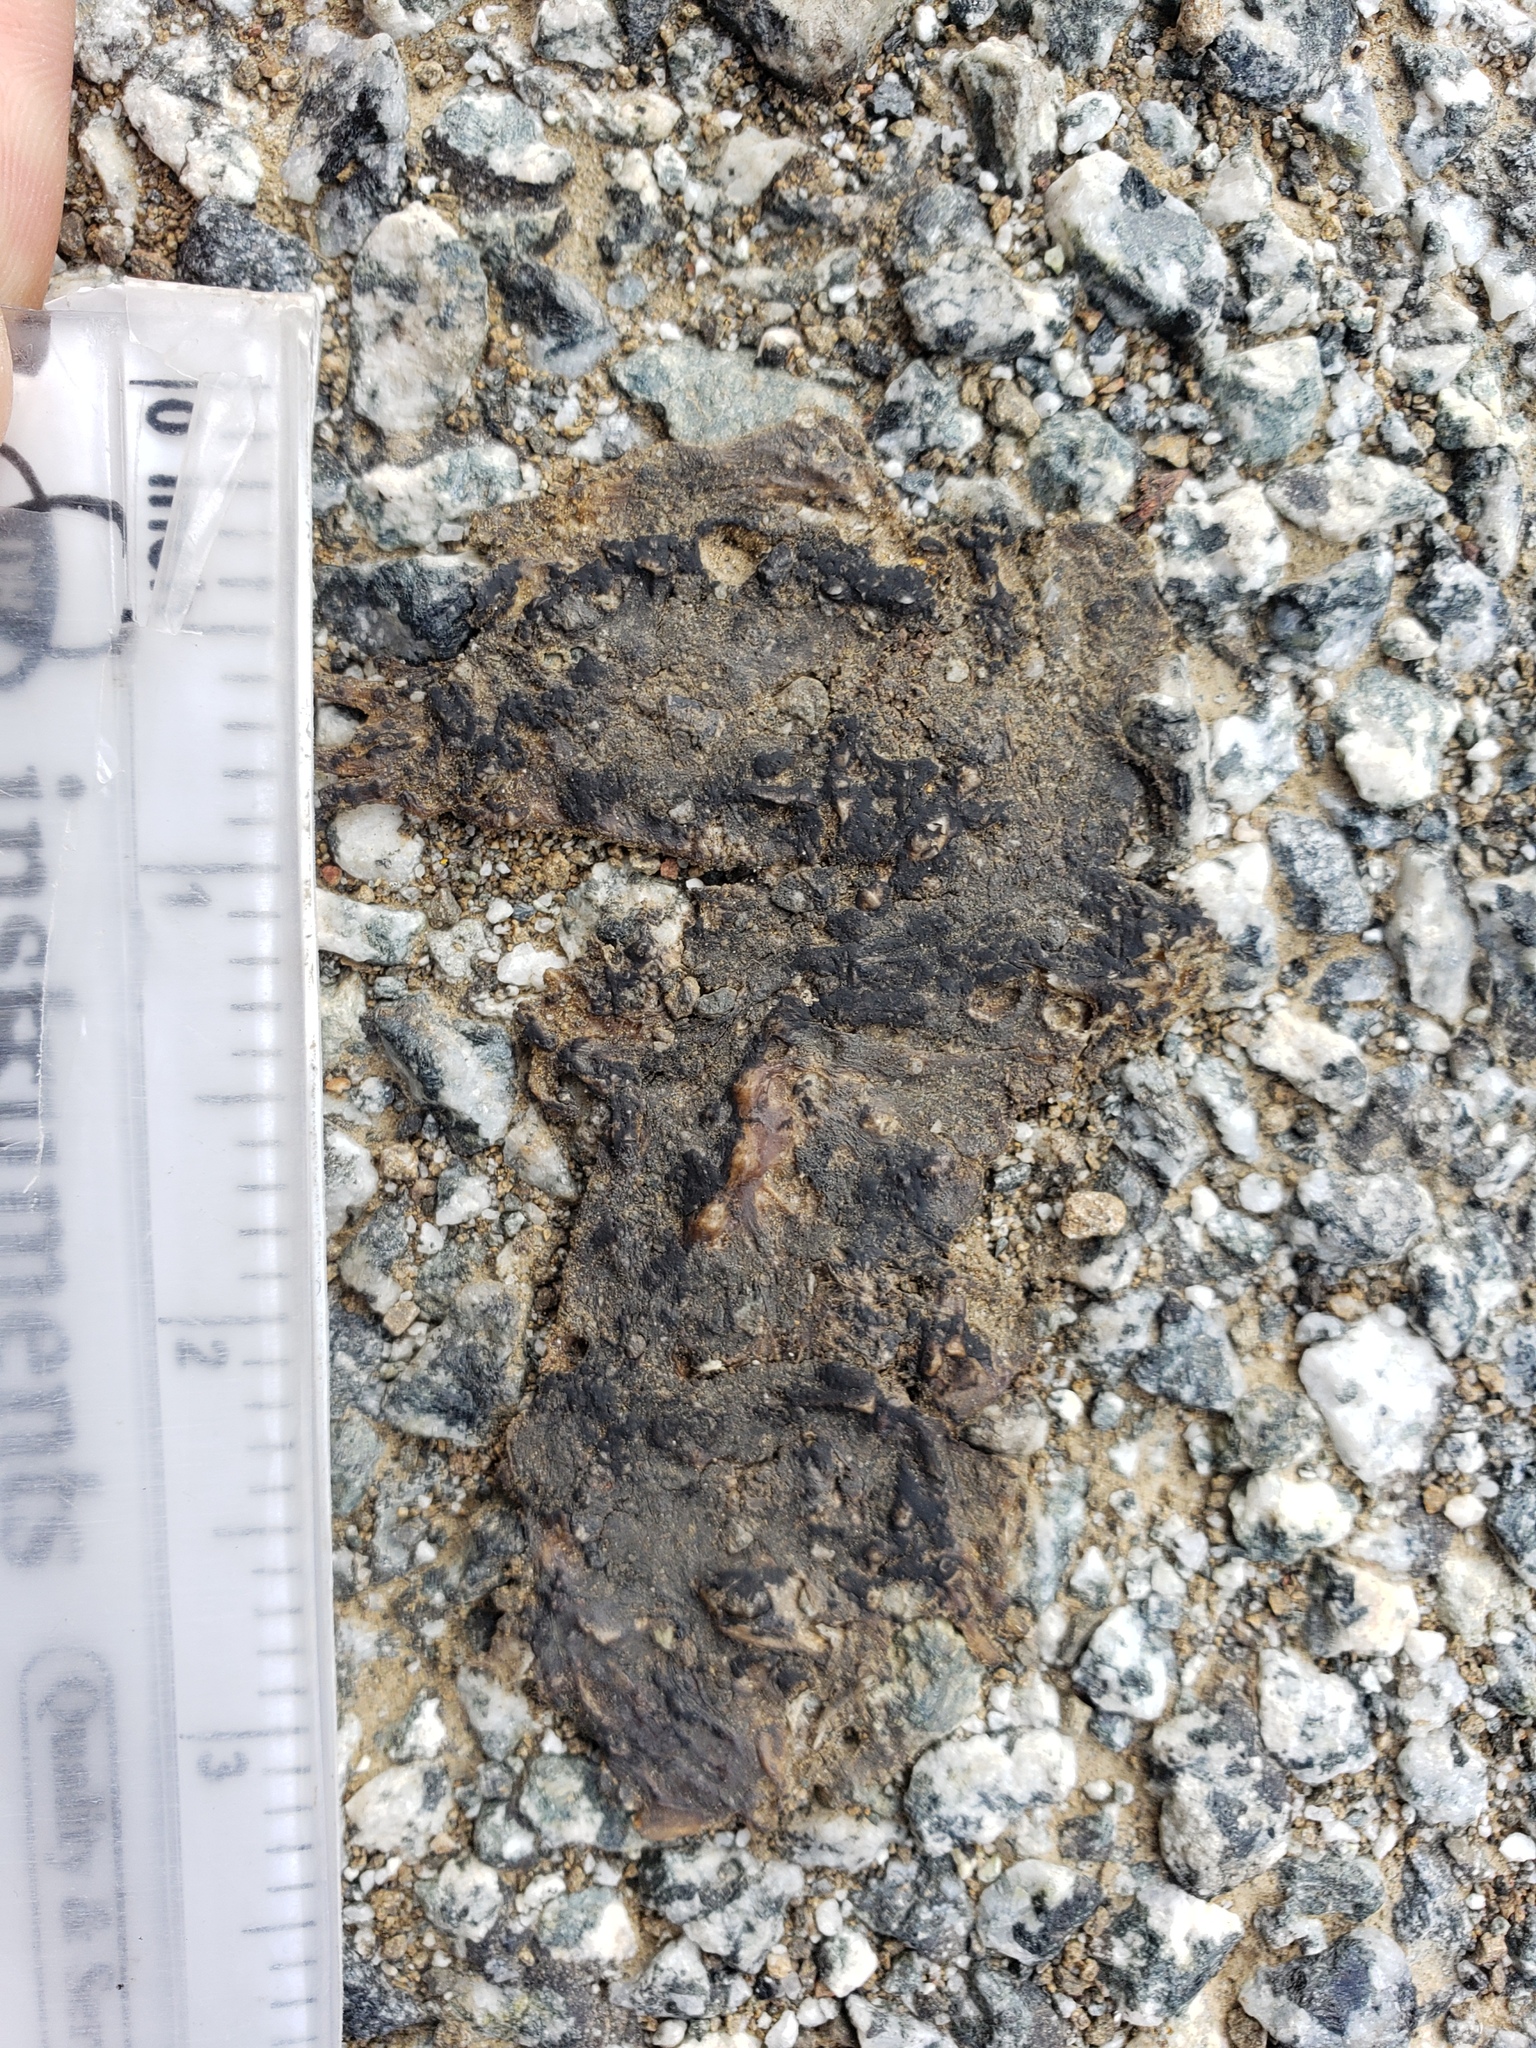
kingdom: Animalia
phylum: Chordata
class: Amphibia
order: Caudata
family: Salamandridae
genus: Taricha
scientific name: Taricha
